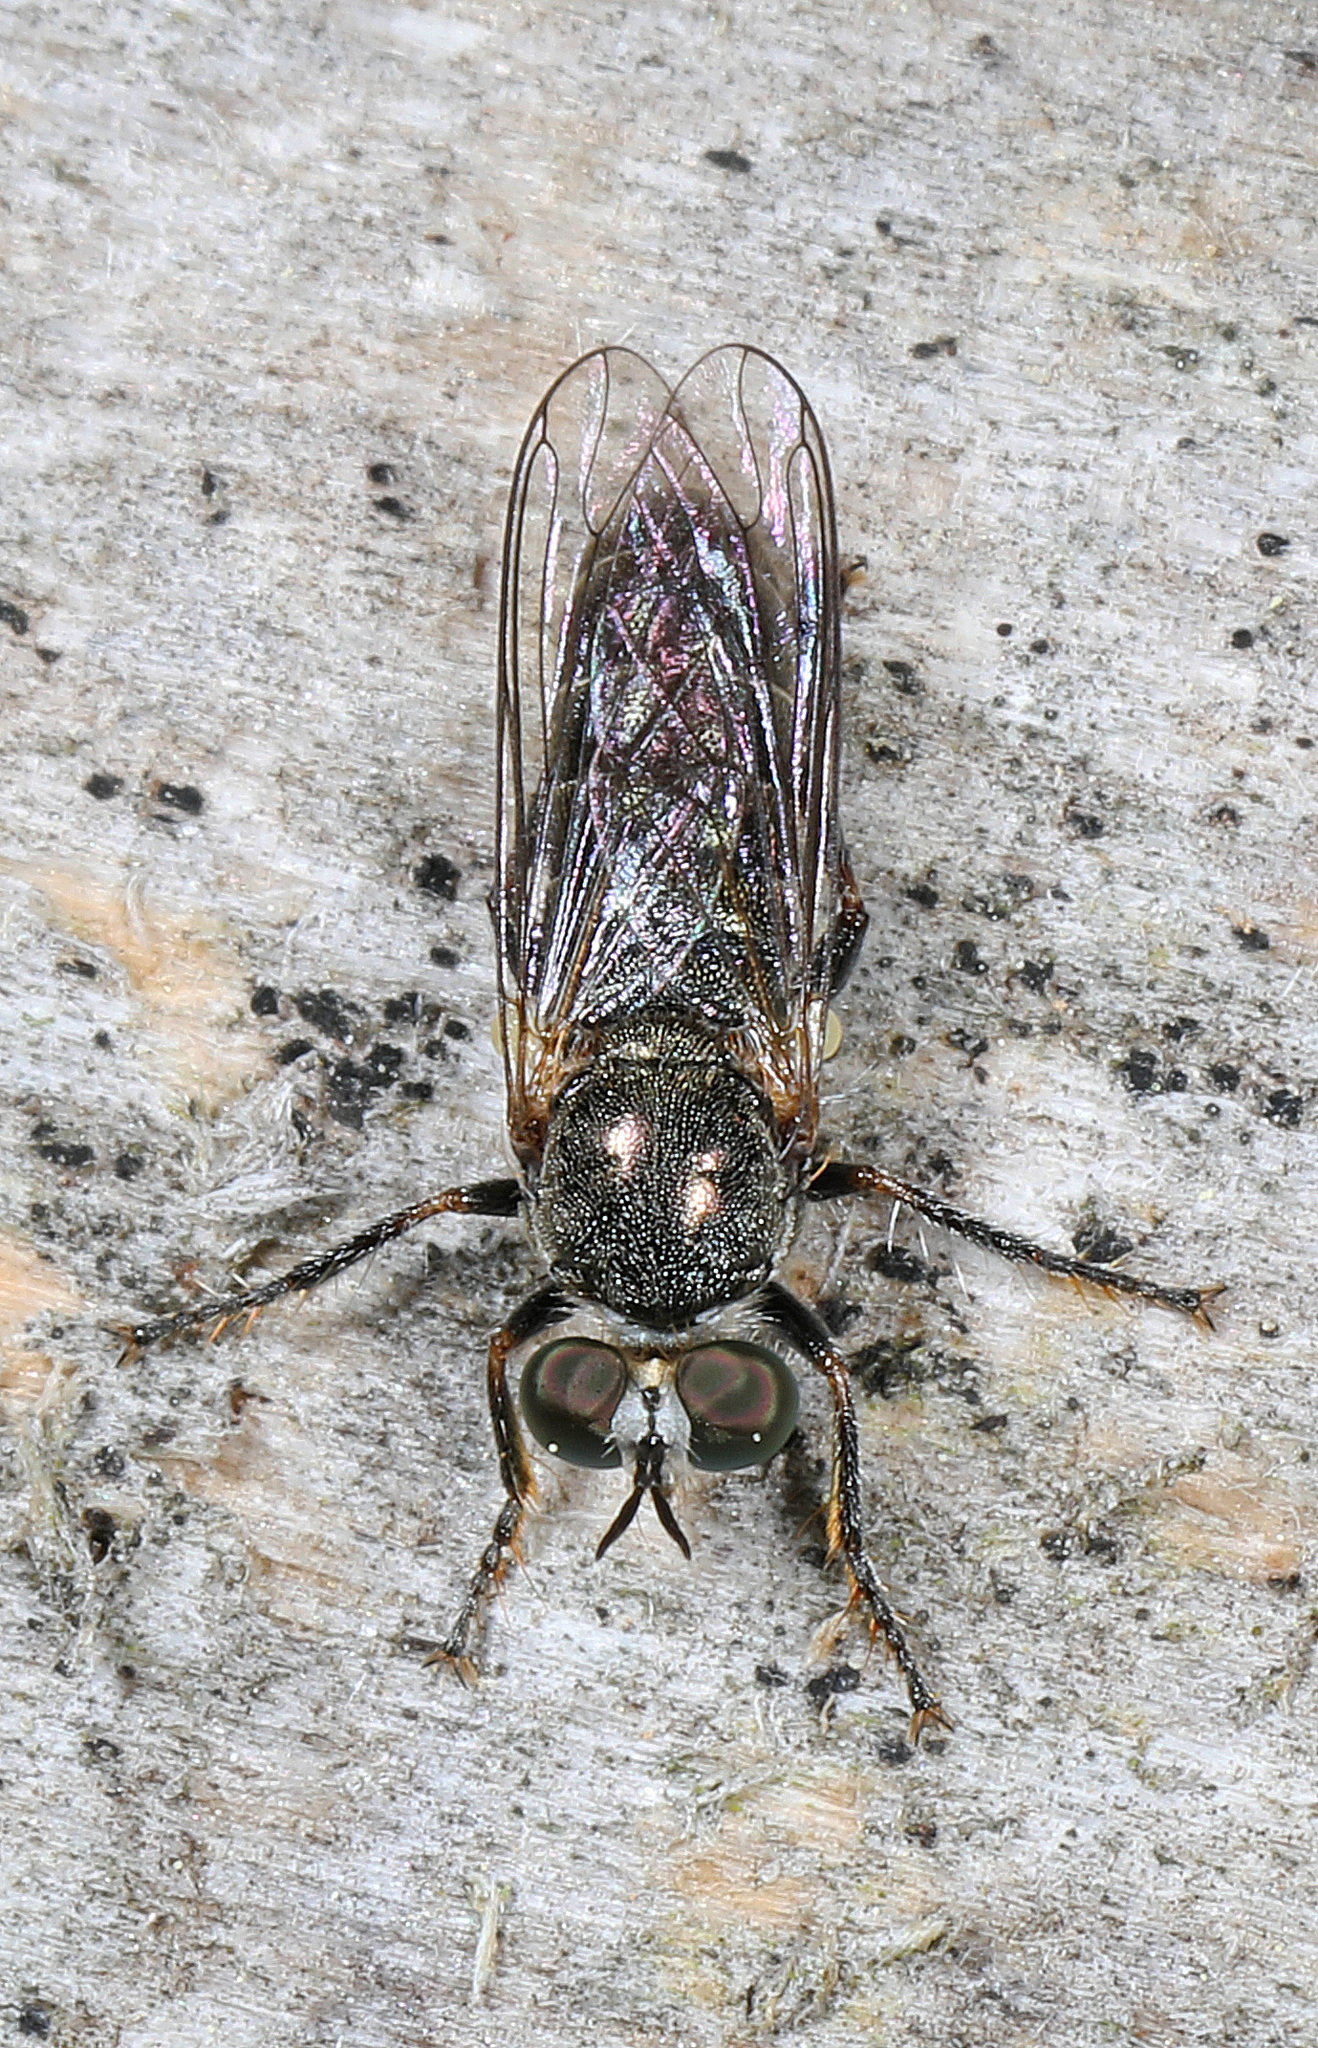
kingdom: Animalia
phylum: Arthropoda
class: Insecta
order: Diptera
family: Asilidae
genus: Atomosia
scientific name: Atomosia puella
